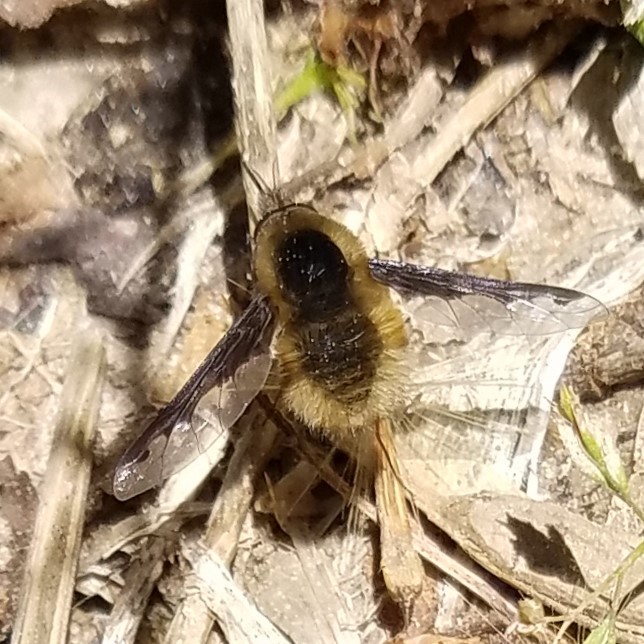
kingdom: Animalia
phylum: Arthropoda
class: Insecta
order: Diptera
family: Bombyliidae
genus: Bombylius
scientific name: Bombylius major
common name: Bee fly
